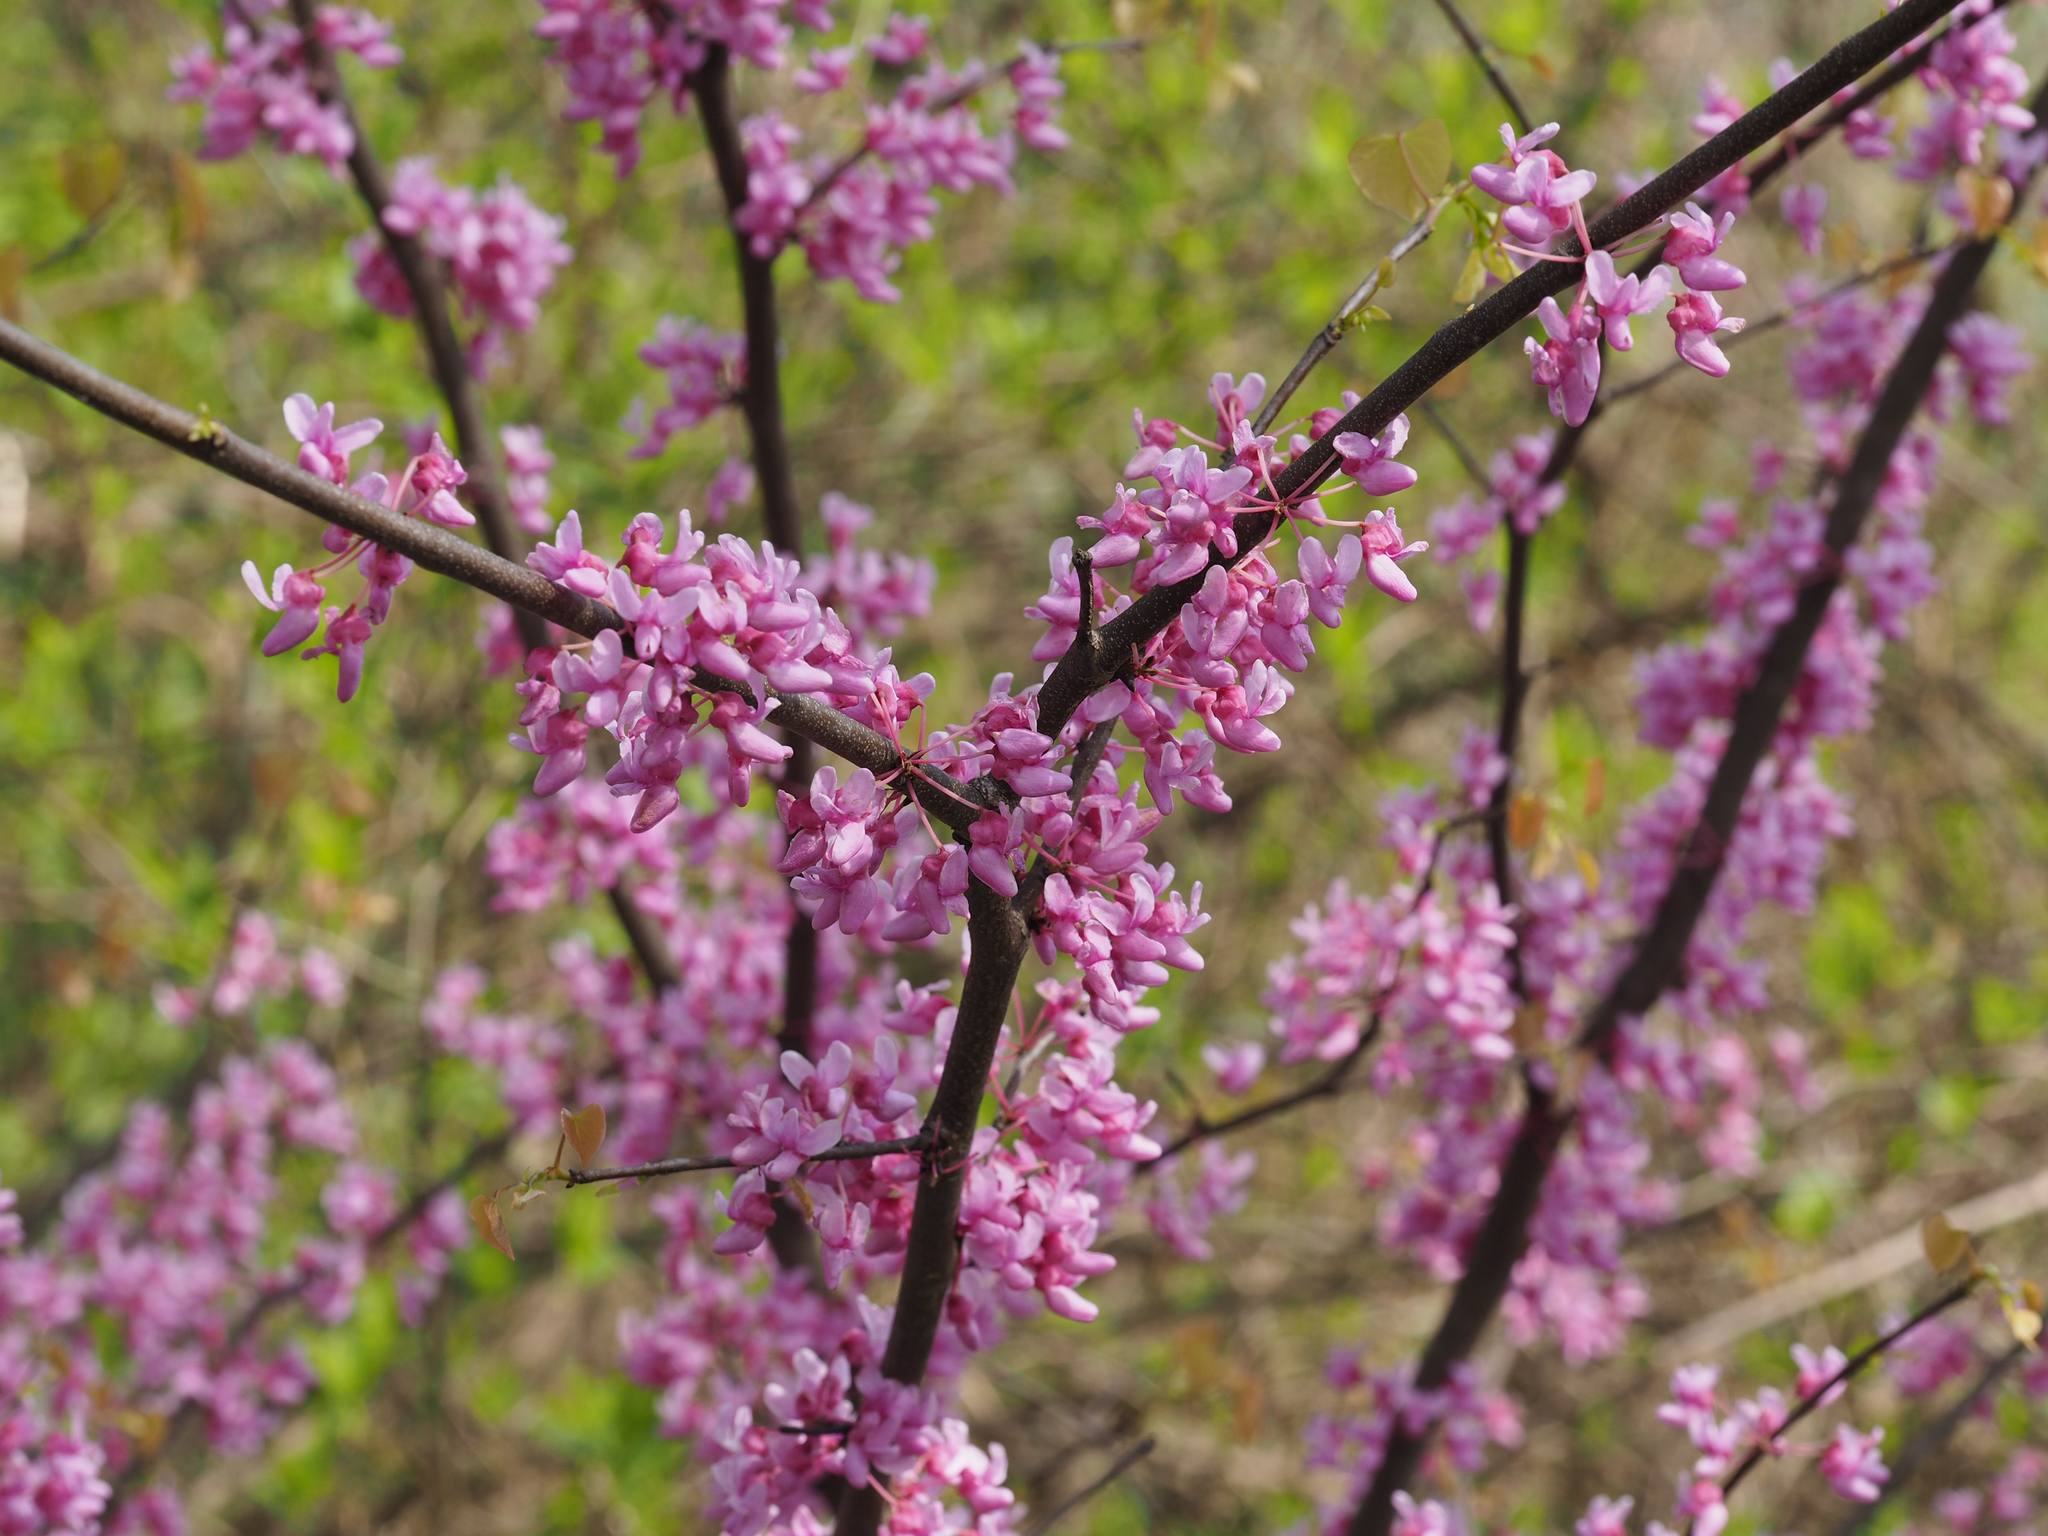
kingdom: Plantae
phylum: Tracheophyta
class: Magnoliopsida
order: Fabales
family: Fabaceae
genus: Cercis
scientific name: Cercis canadensis
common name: Eastern redbud
